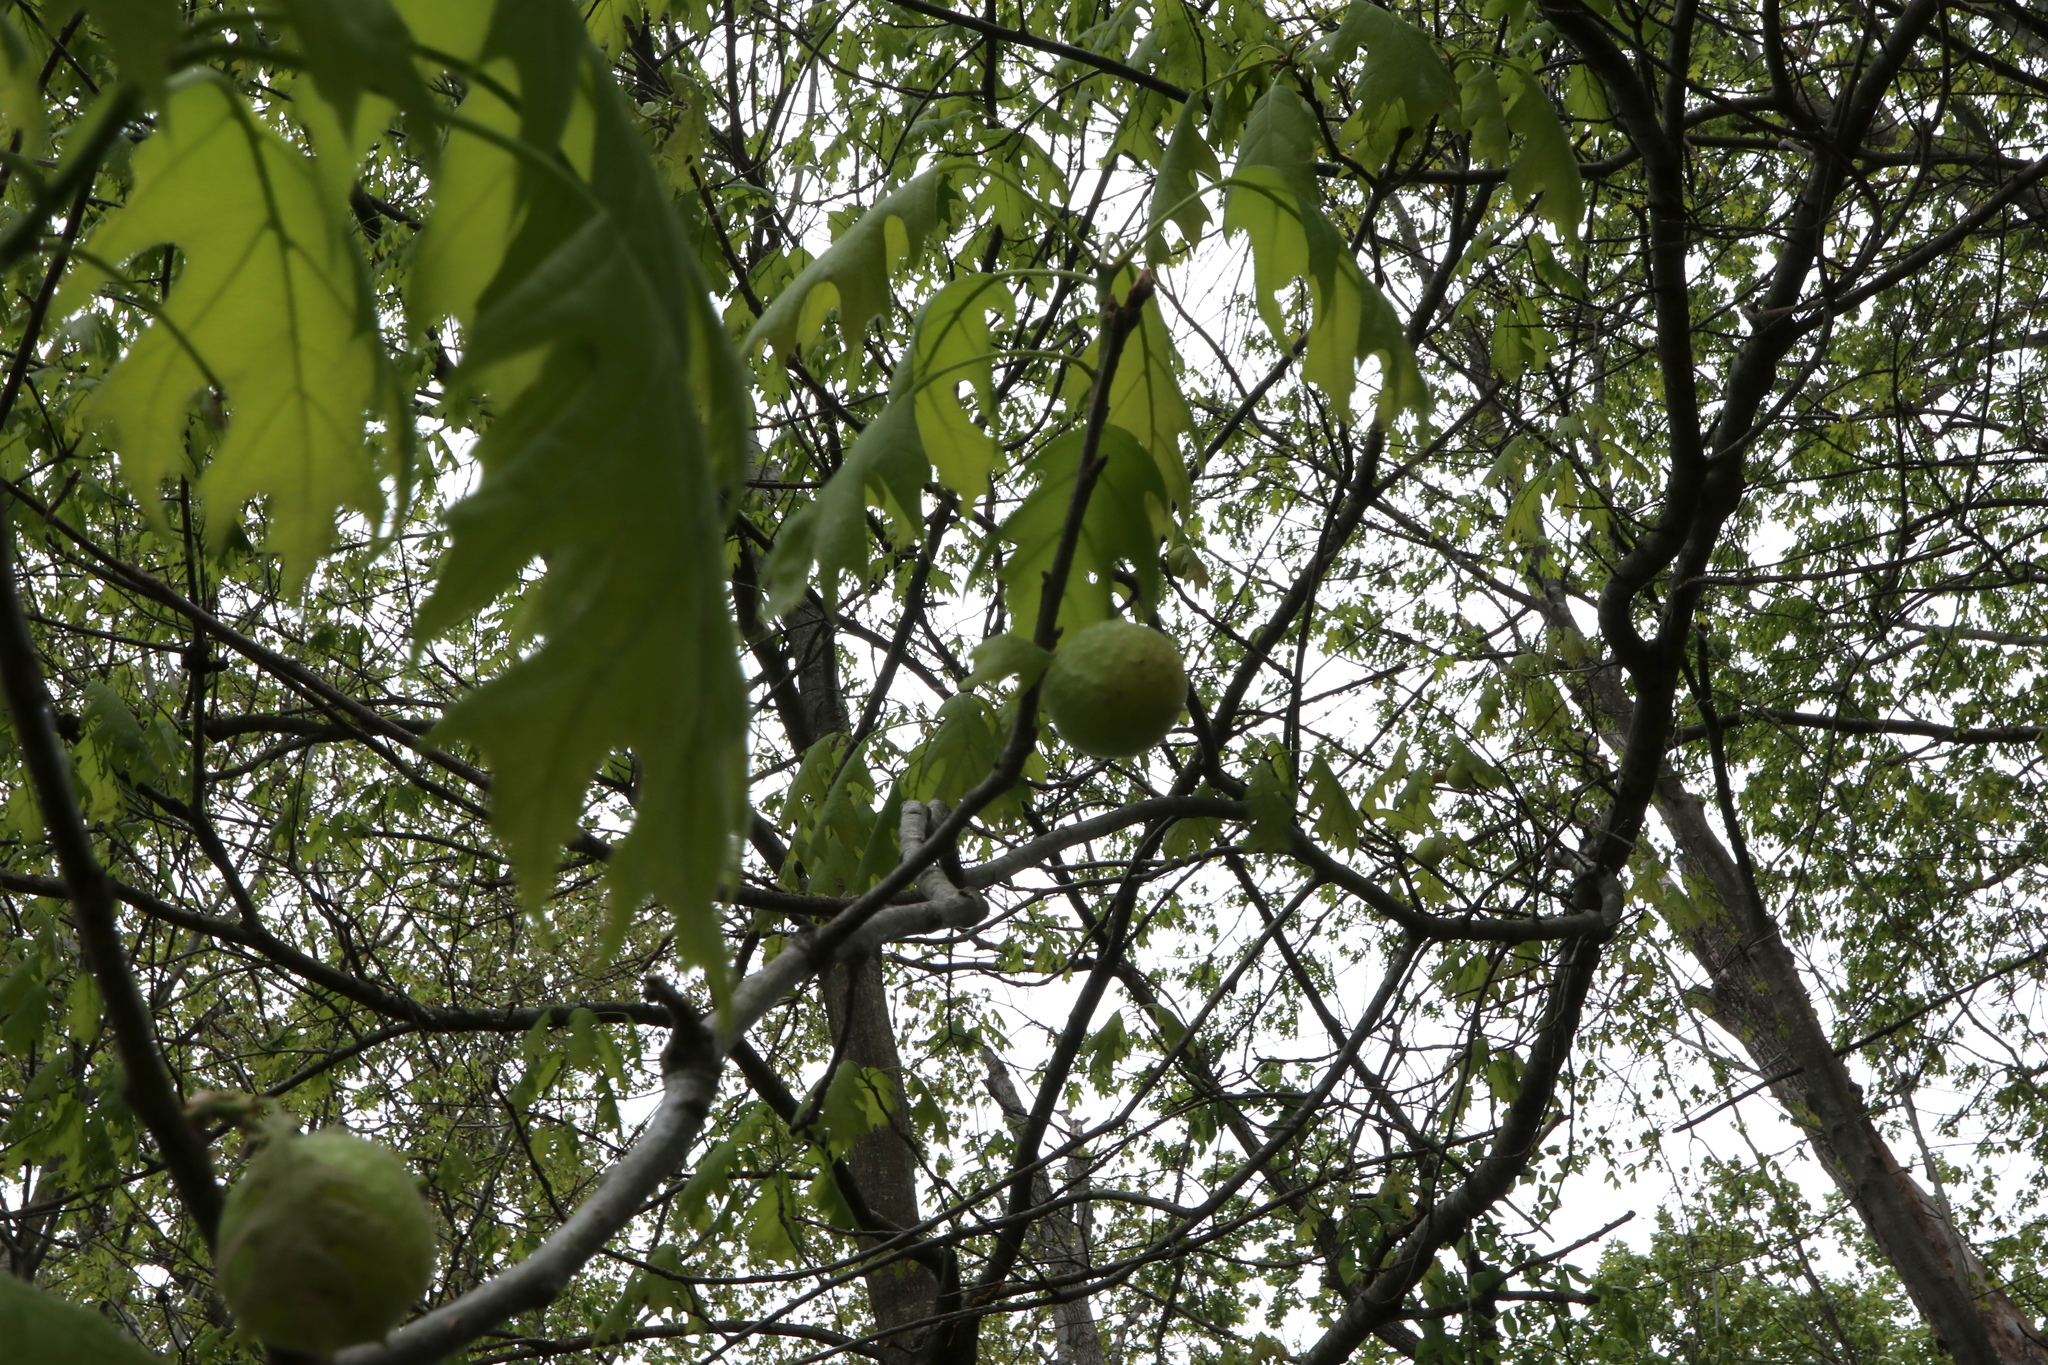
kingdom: Animalia
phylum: Arthropoda
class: Insecta
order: Hymenoptera
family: Cynipidae
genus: Amphibolips
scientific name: Amphibolips
